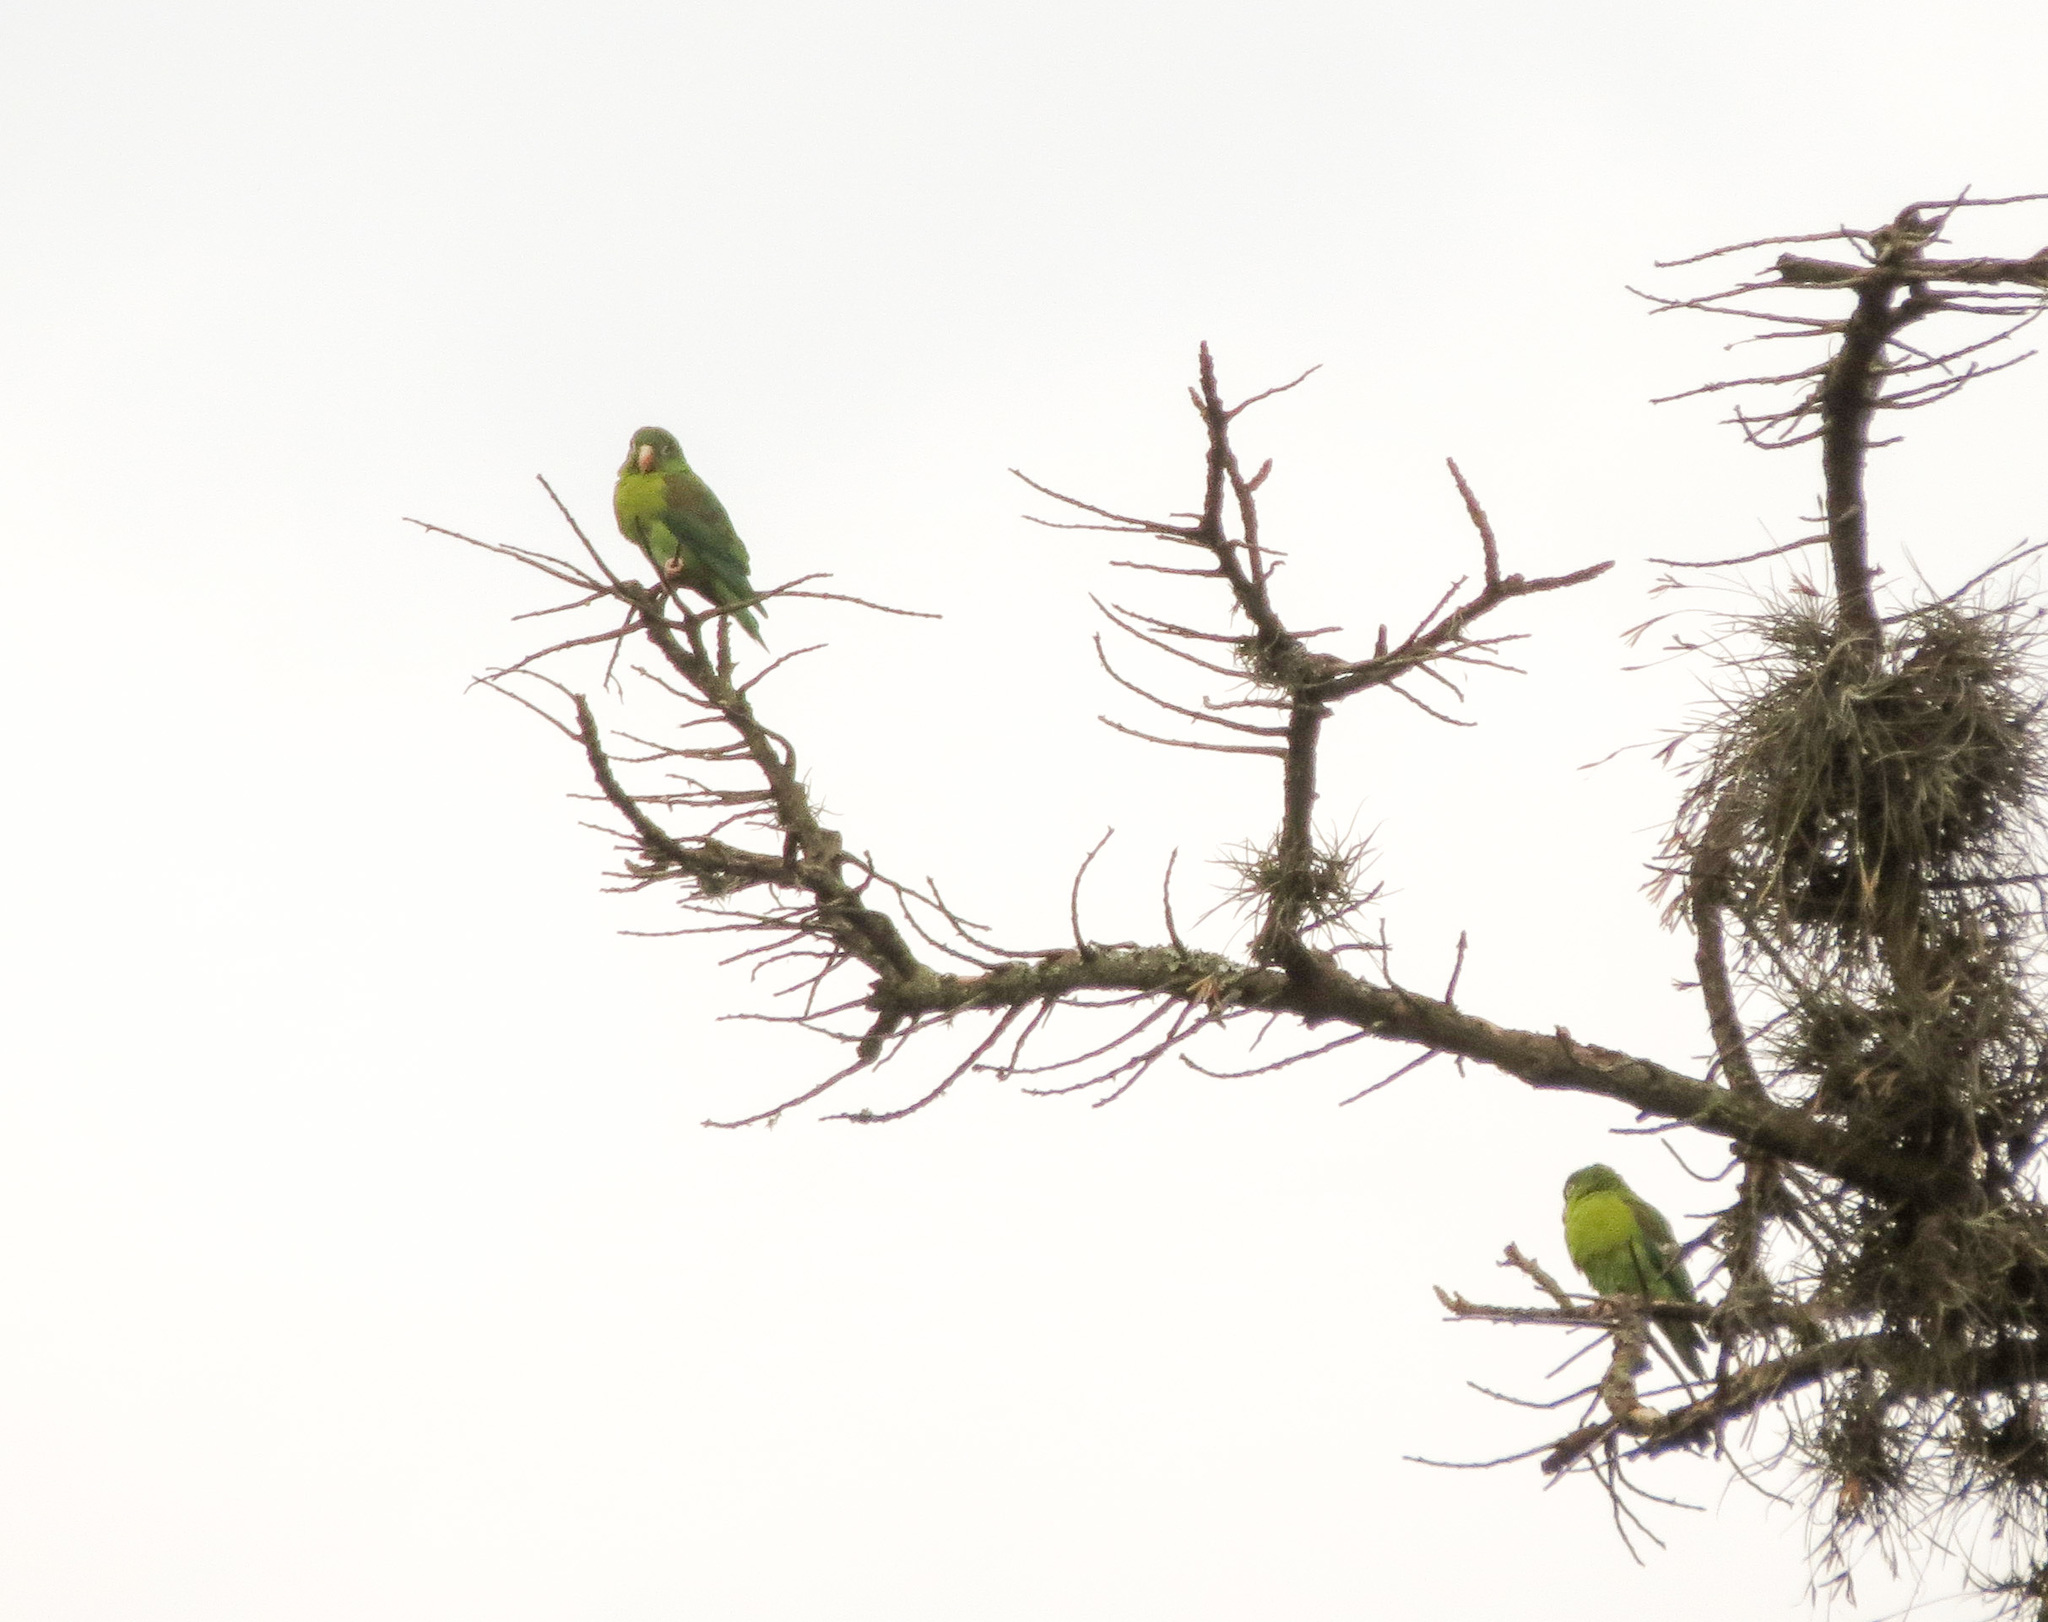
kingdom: Animalia
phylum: Chordata
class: Aves
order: Psittaciformes
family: Psittacidae
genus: Brotogeris
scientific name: Brotogeris jugularis
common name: Orange-chinned parakeet
